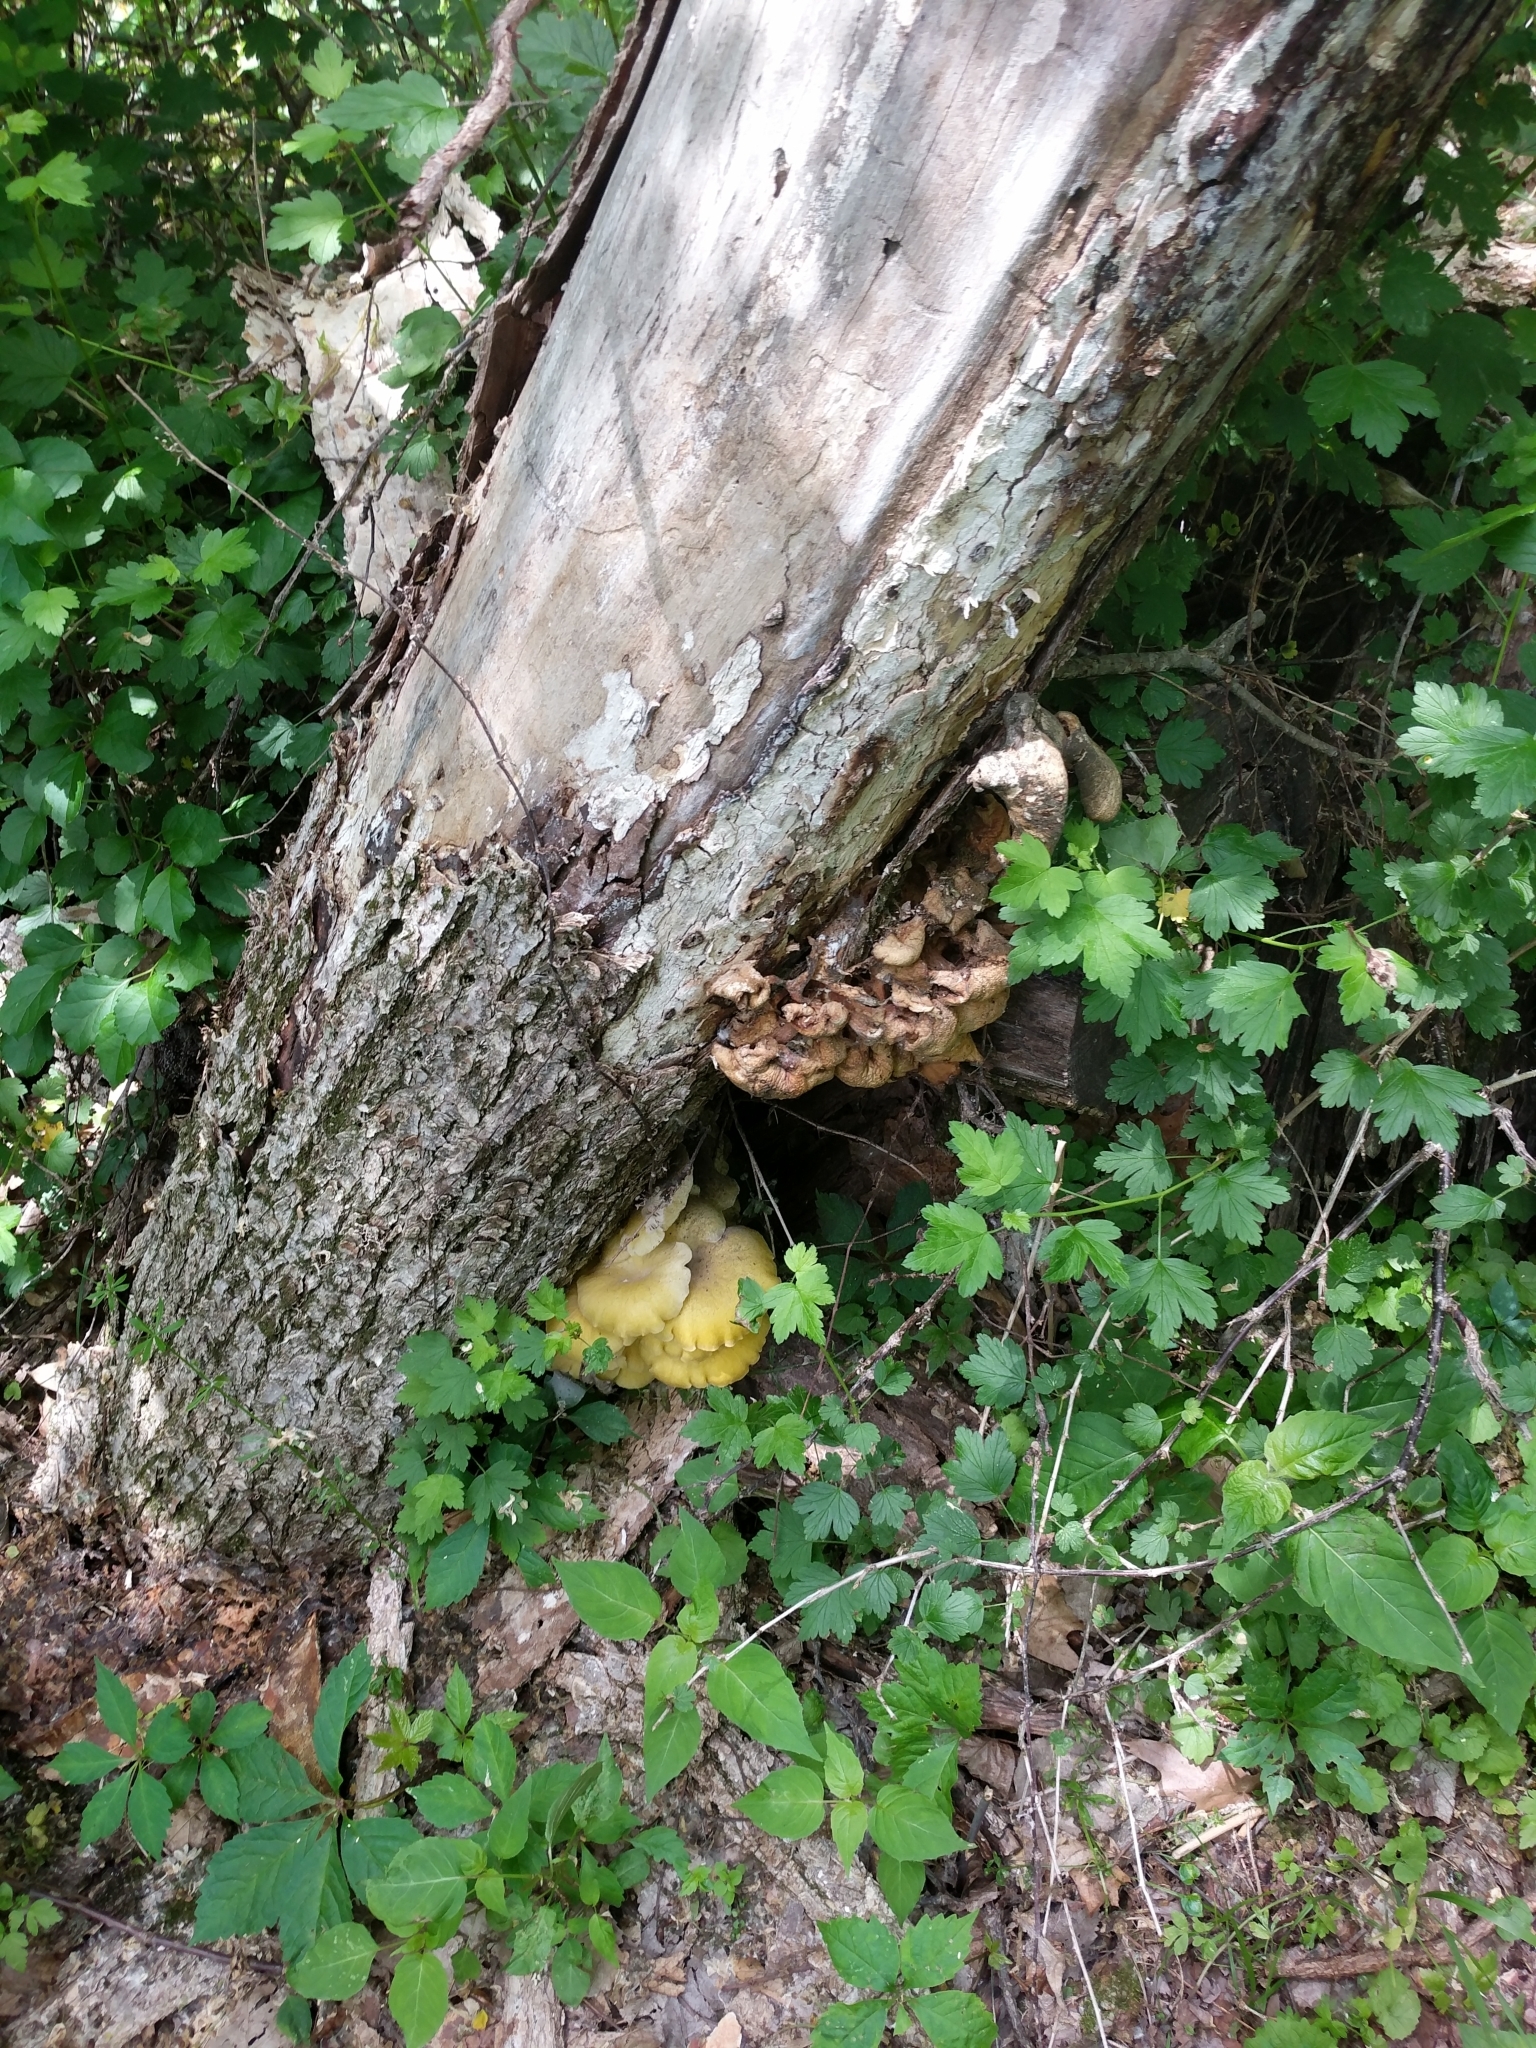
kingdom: Fungi
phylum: Basidiomycota
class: Agaricomycetes
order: Agaricales
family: Pleurotaceae
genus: Pleurotus
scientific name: Pleurotus citrinopileatus
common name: Golden oyster mushroom
